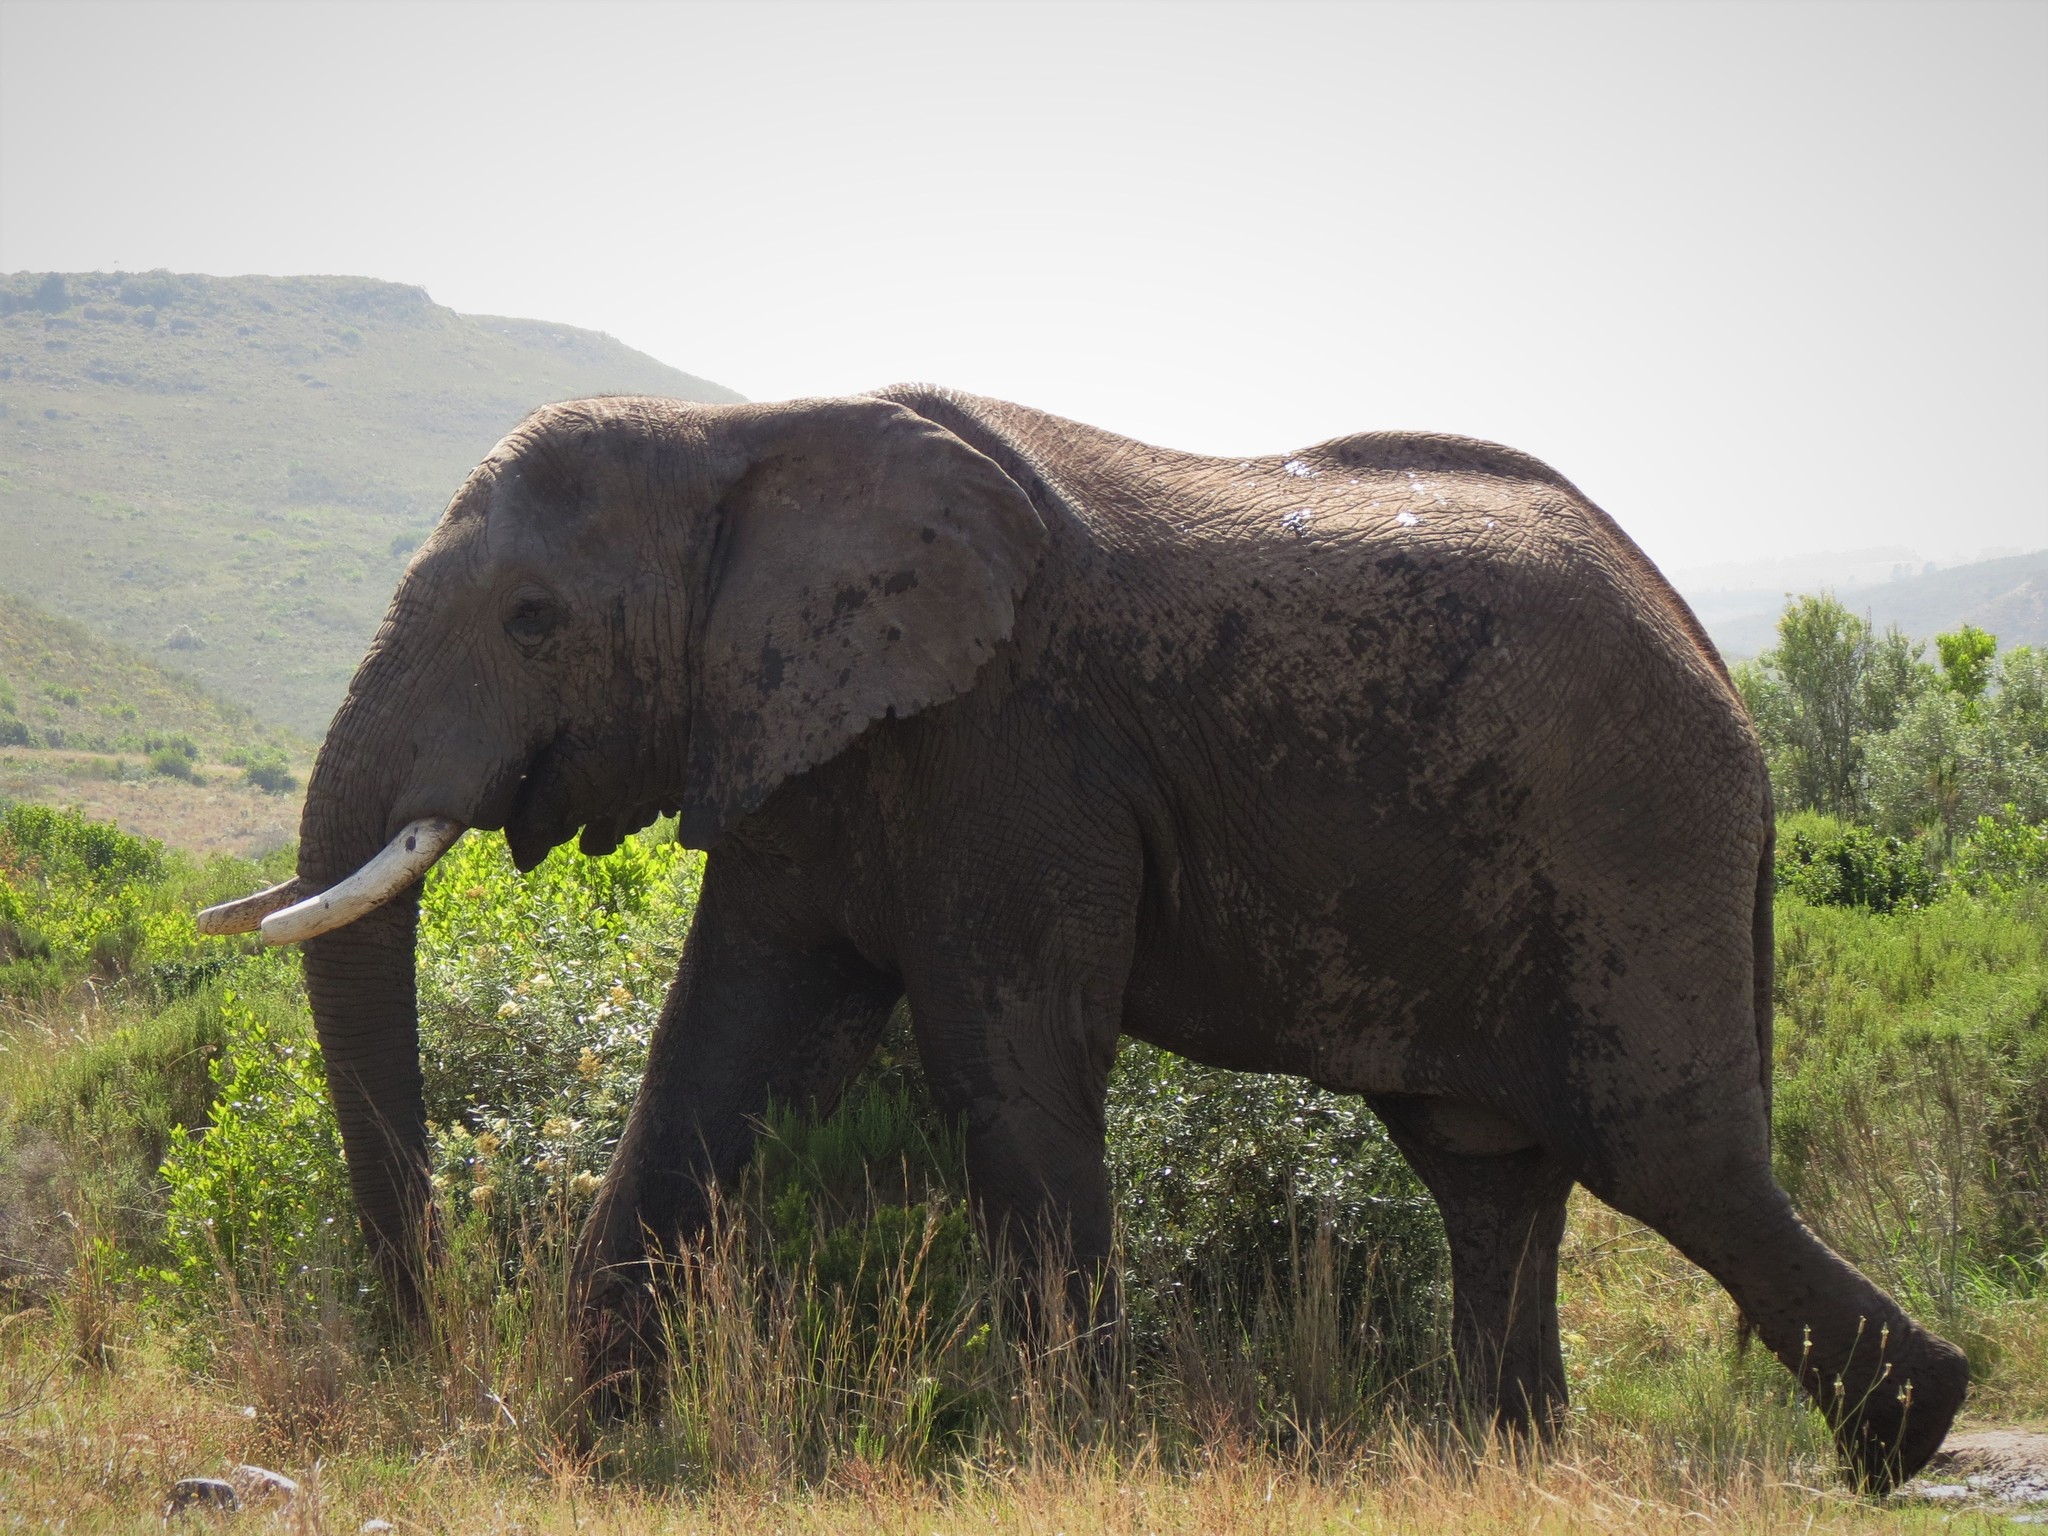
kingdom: Animalia
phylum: Chordata
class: Mammalia
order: Proboscidea
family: Elephantidae
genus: Loxodonta
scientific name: Loxodonta africana
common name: African elephant
